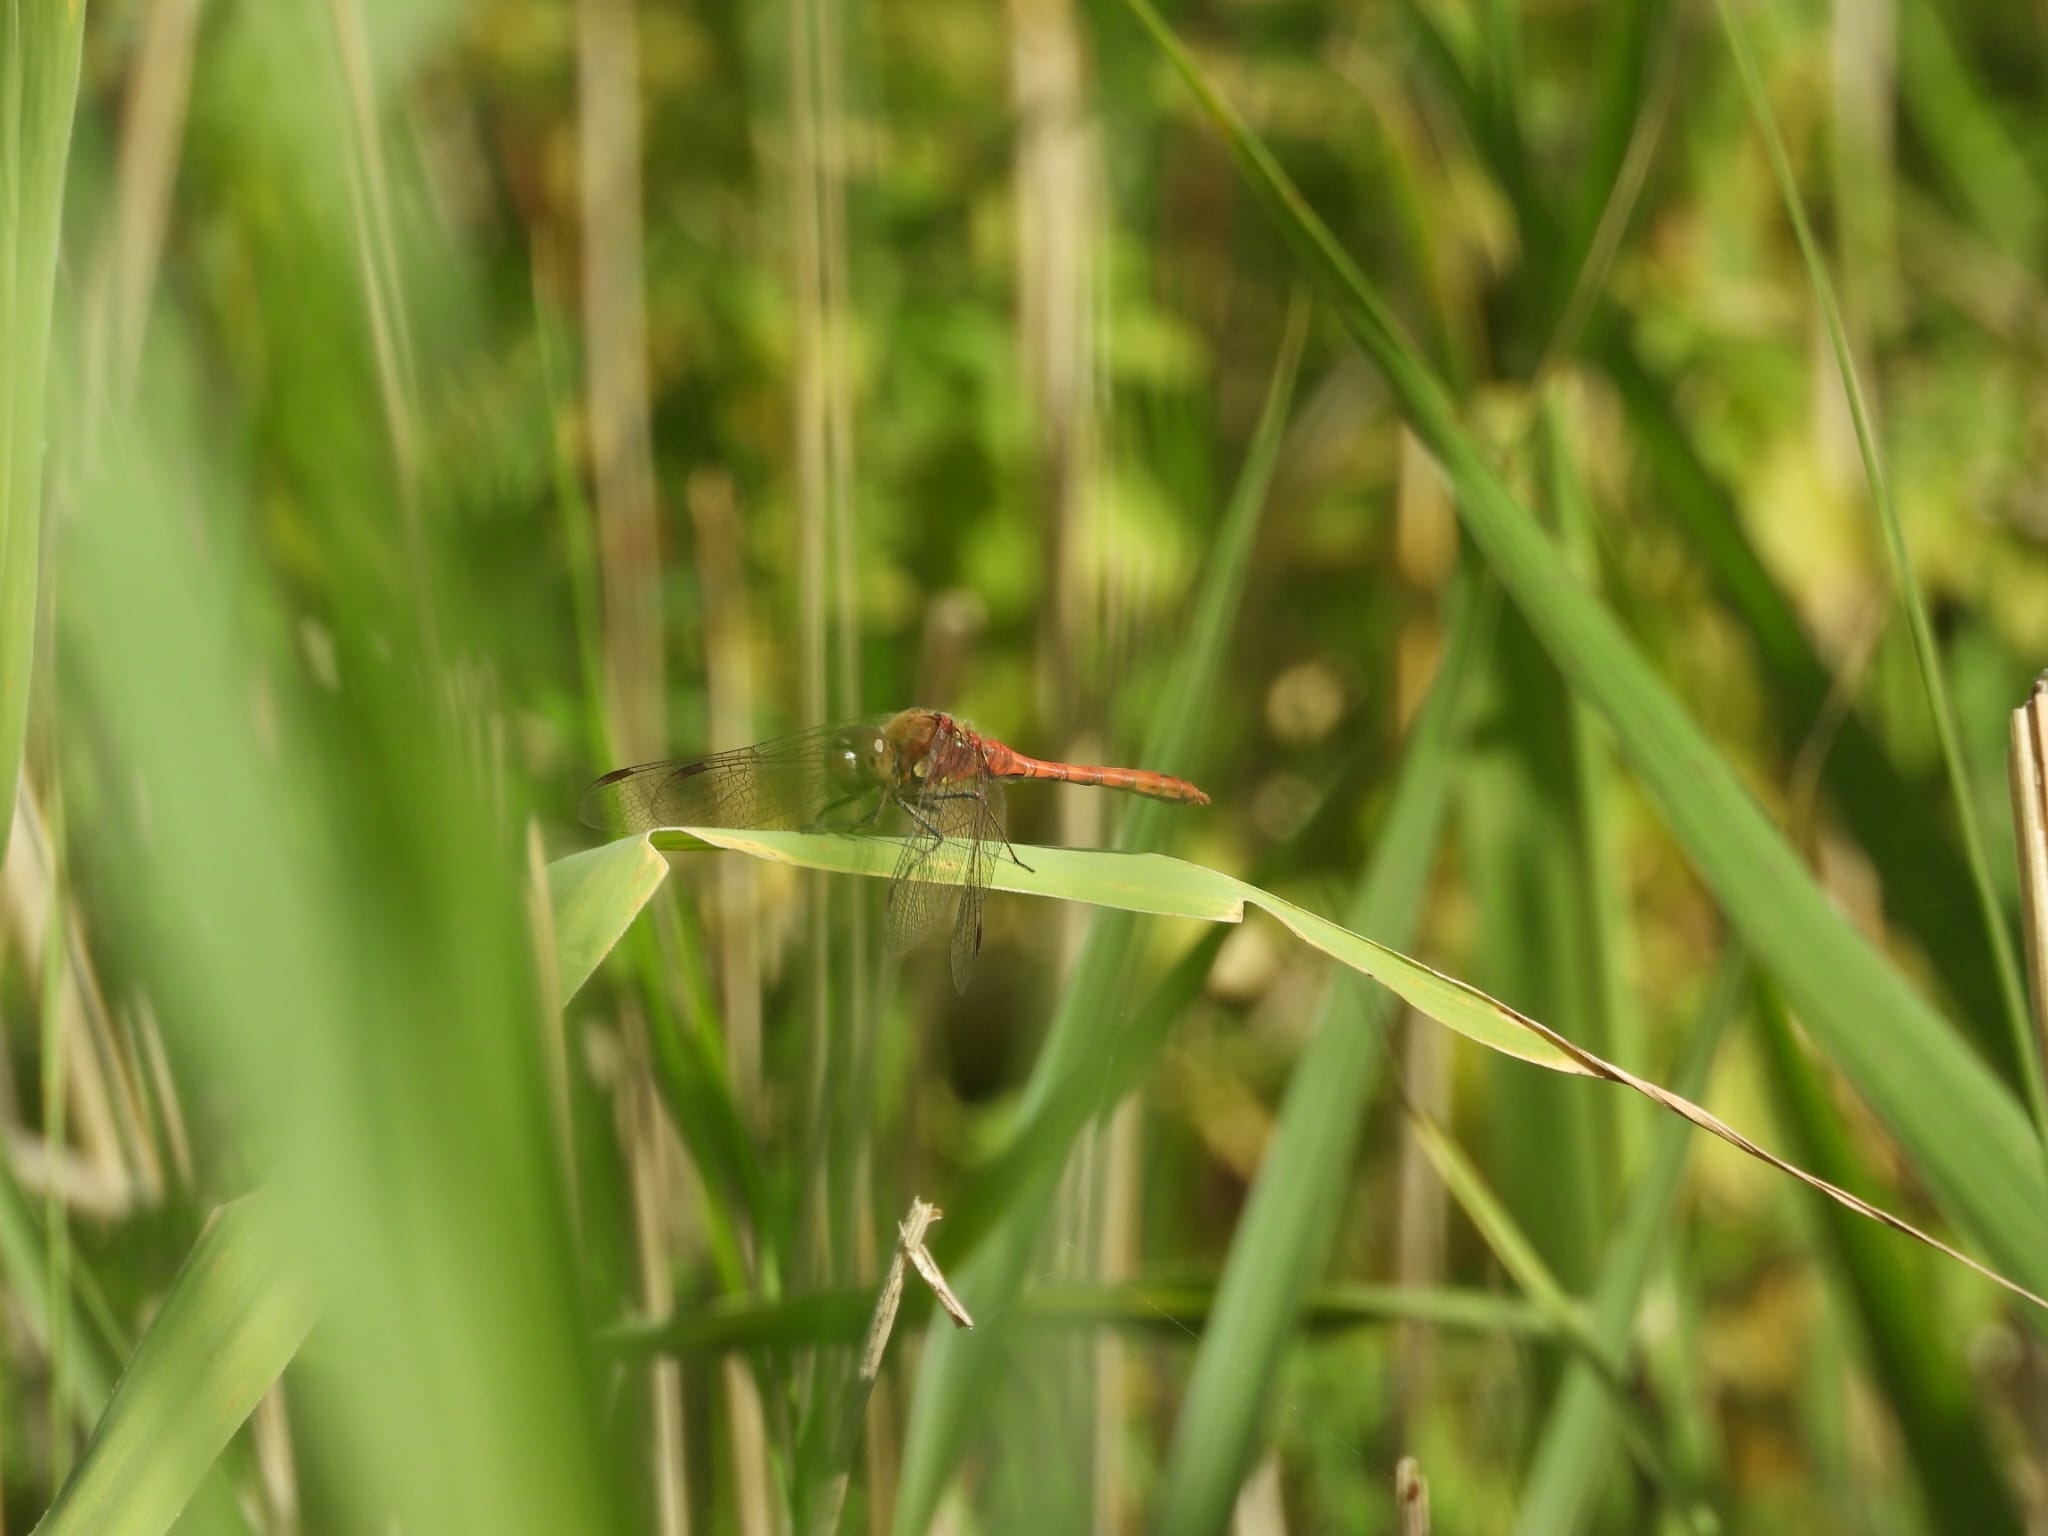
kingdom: Animalia
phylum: Arthropoda
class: Insecta
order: Odonata
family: Libellulidae
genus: Sympetrum
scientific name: Sympetrum striolatum
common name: Common darter
